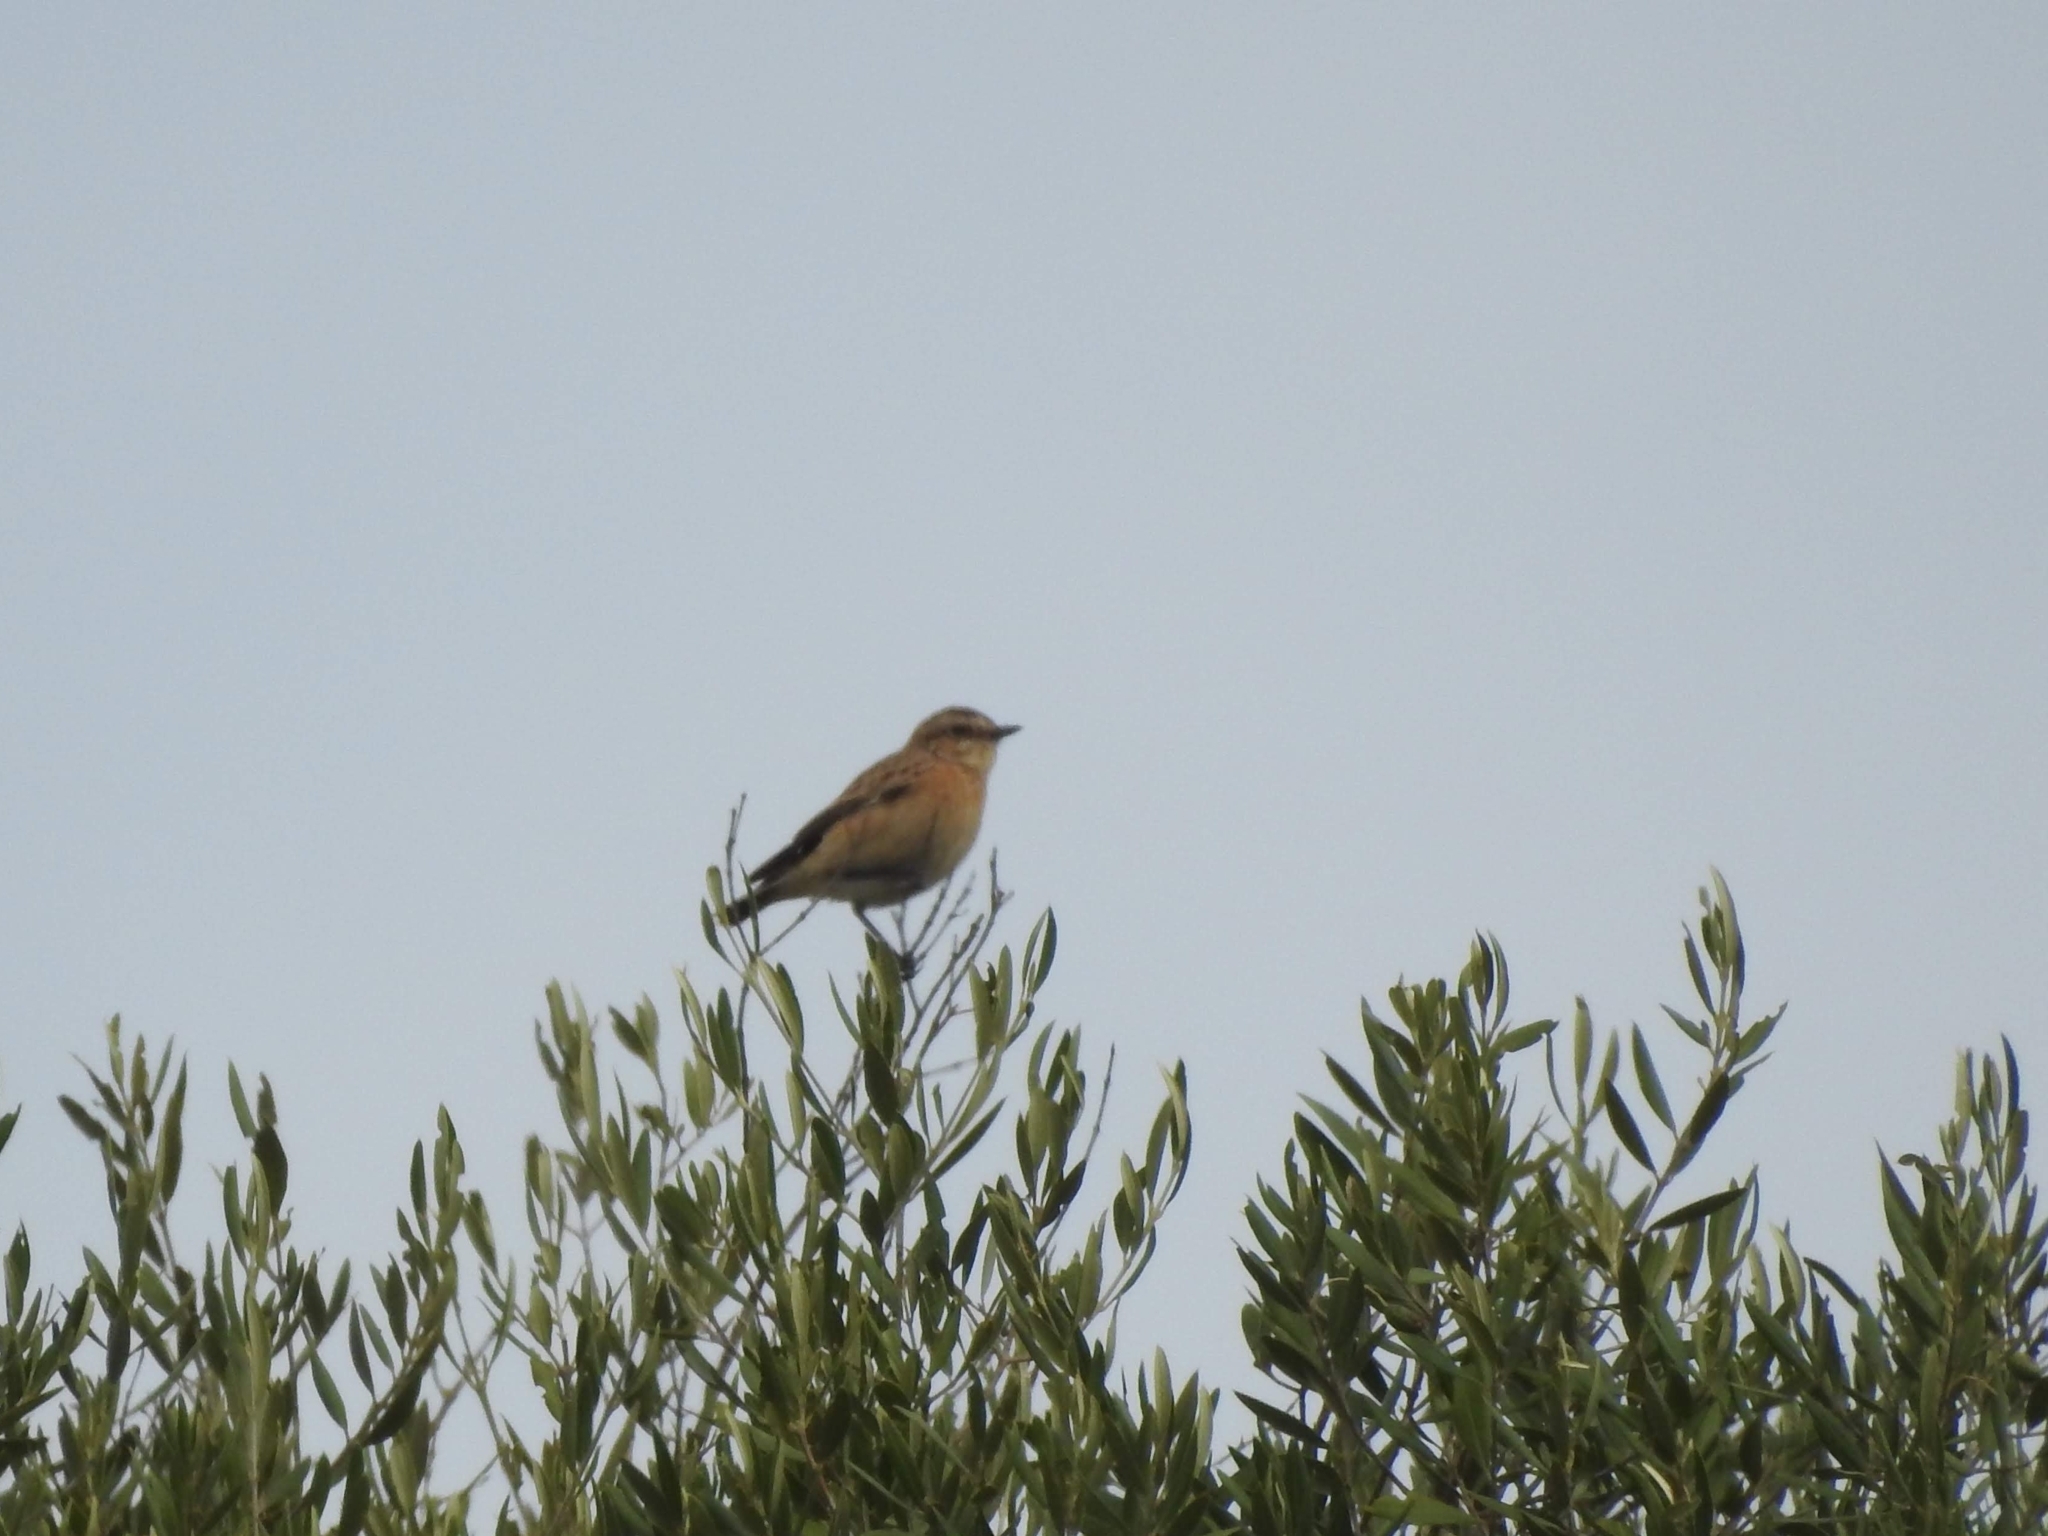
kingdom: Animalia
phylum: Chordata
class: Aves
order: Passeriformes
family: Muscicapidae
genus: Saxicola
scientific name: Saxicola rubetra
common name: Whinchat
